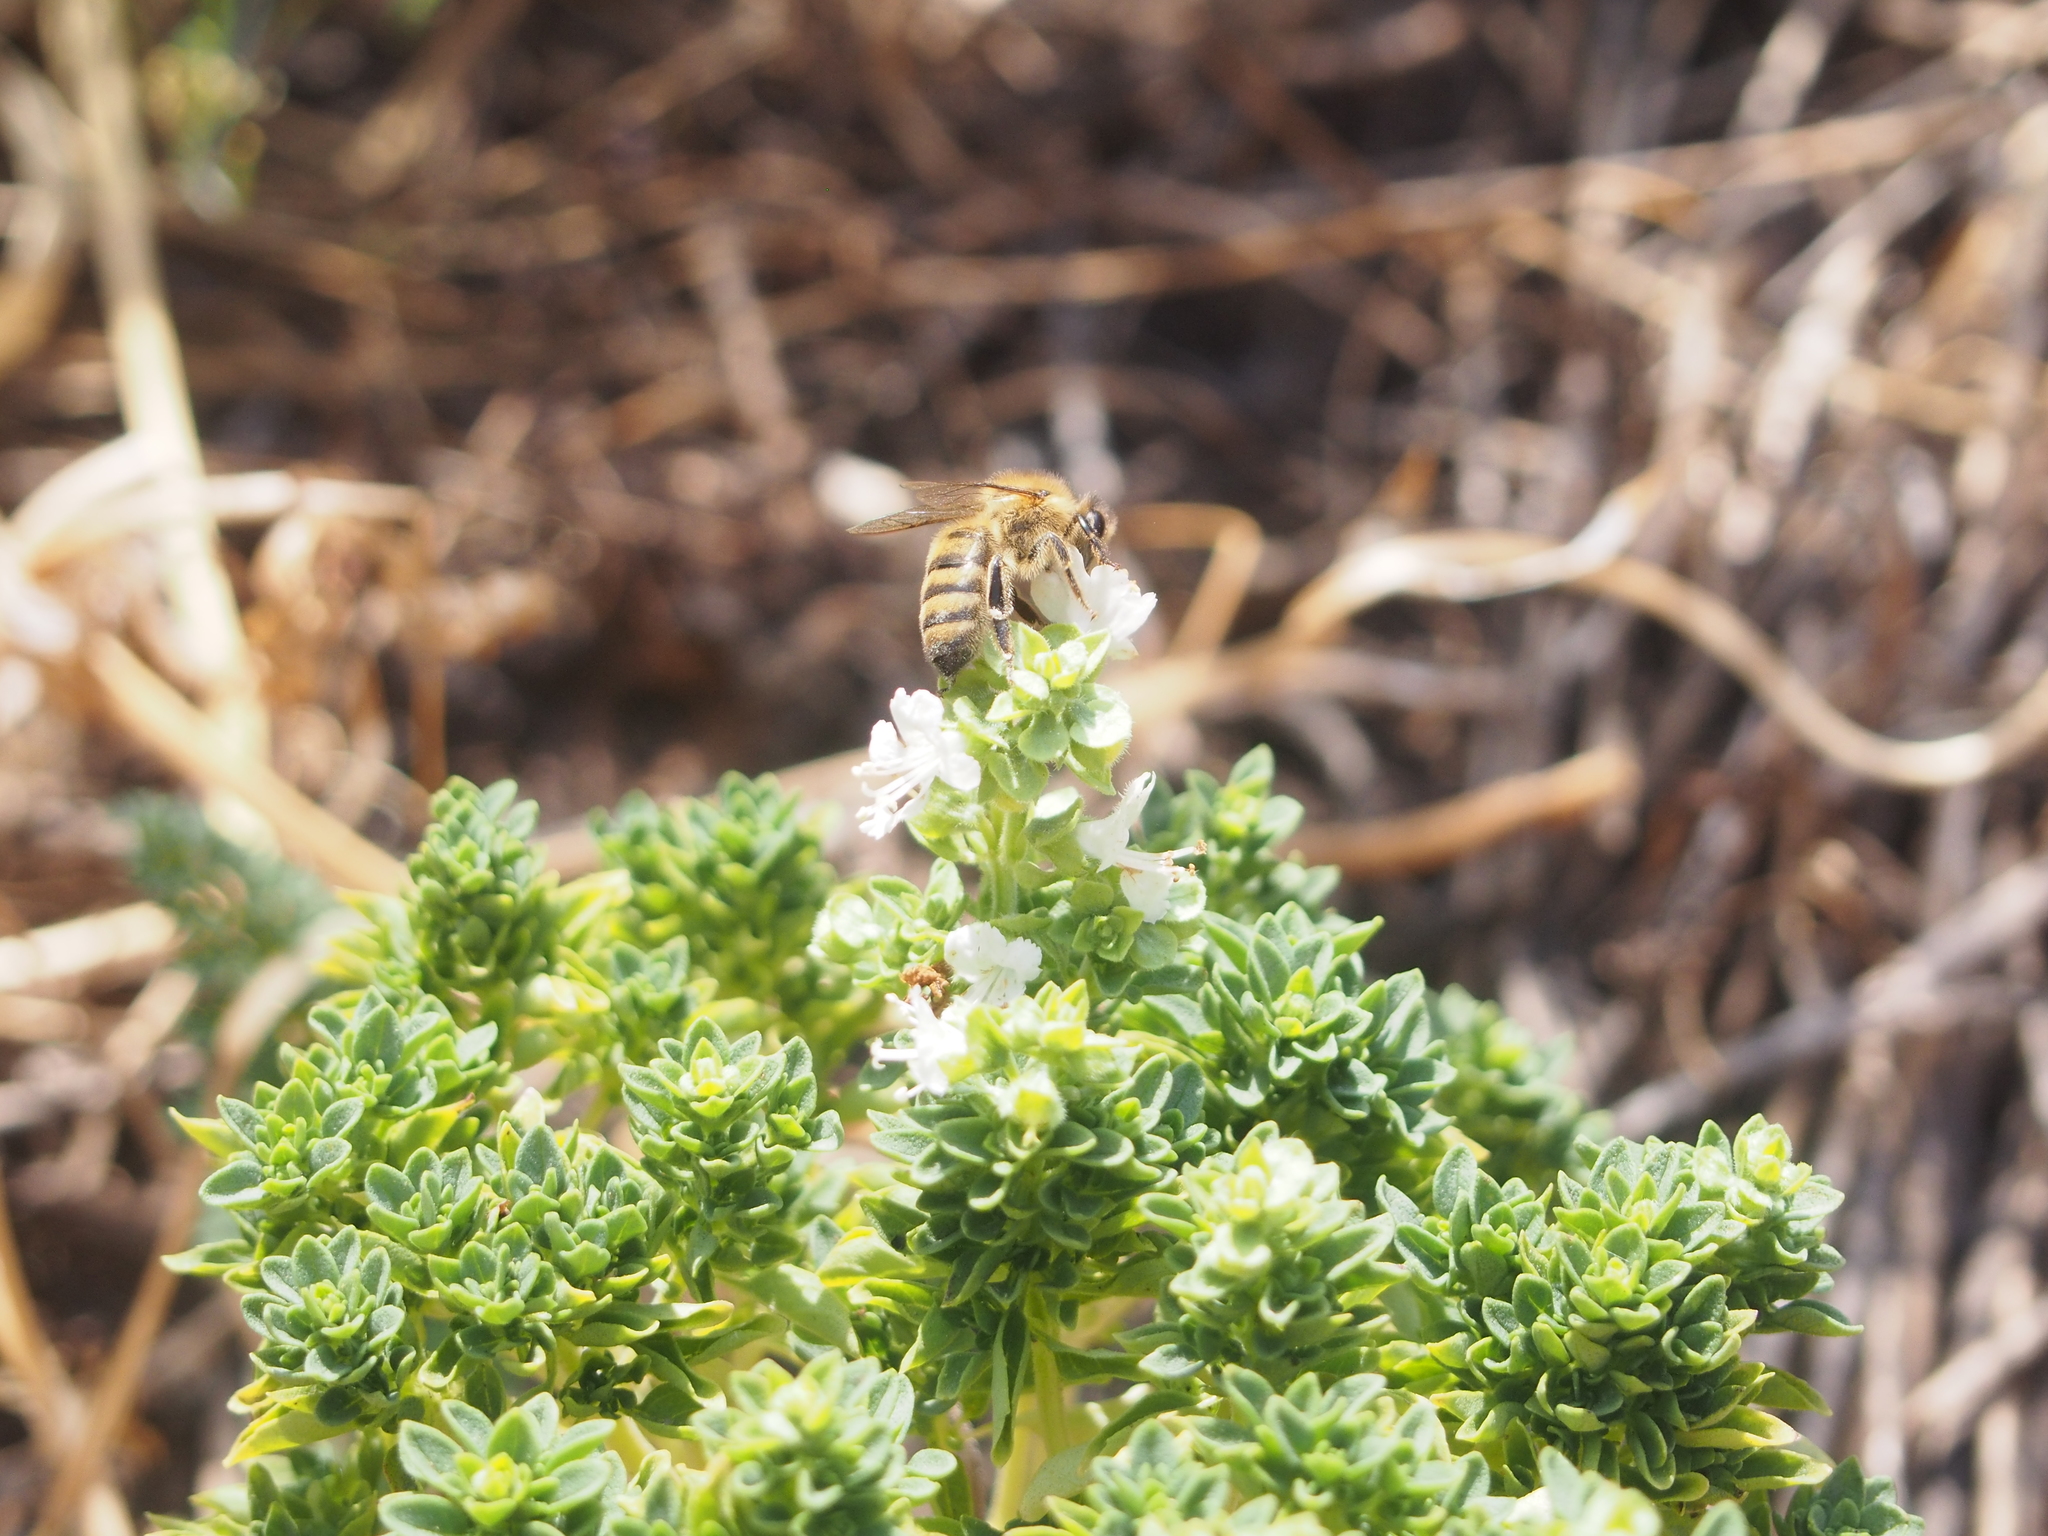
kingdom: Animalia
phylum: Arthropoda
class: Insecta
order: Hymenoptera
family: Apidae
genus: Apis
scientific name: Apis mellifera
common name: Honey bee
